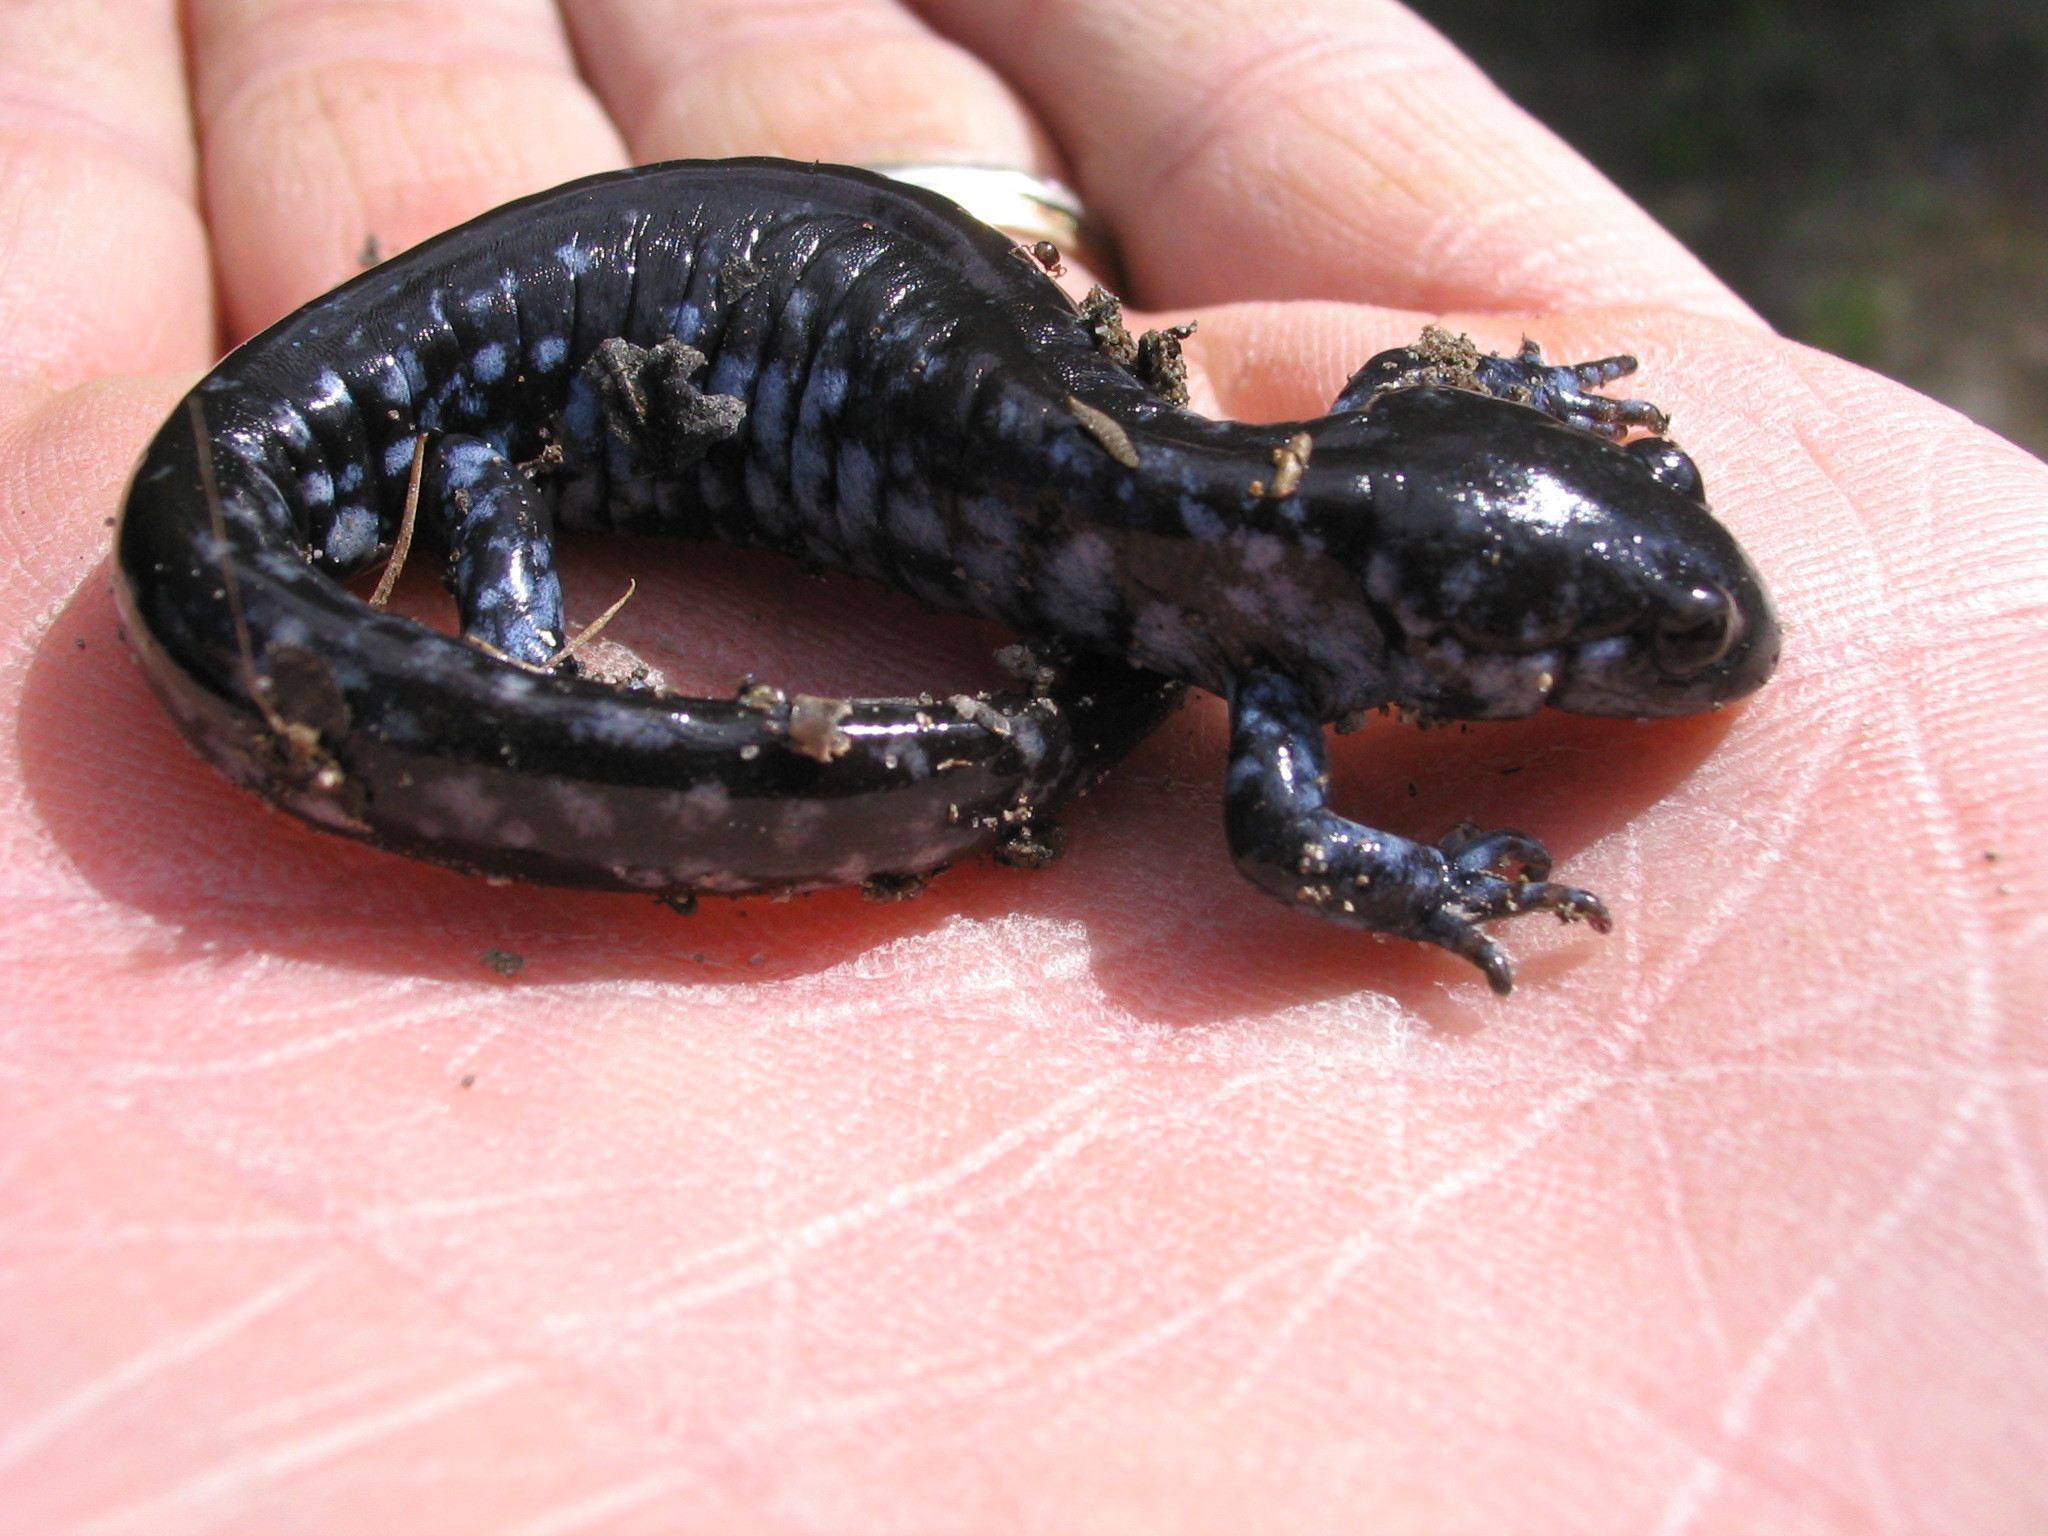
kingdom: Animalia
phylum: Chordata
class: Amphibia
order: Caudata
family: Ambystomatidae
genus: Ambystoma
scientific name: Ambystoma laterale
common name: Blue-spotted salamander
